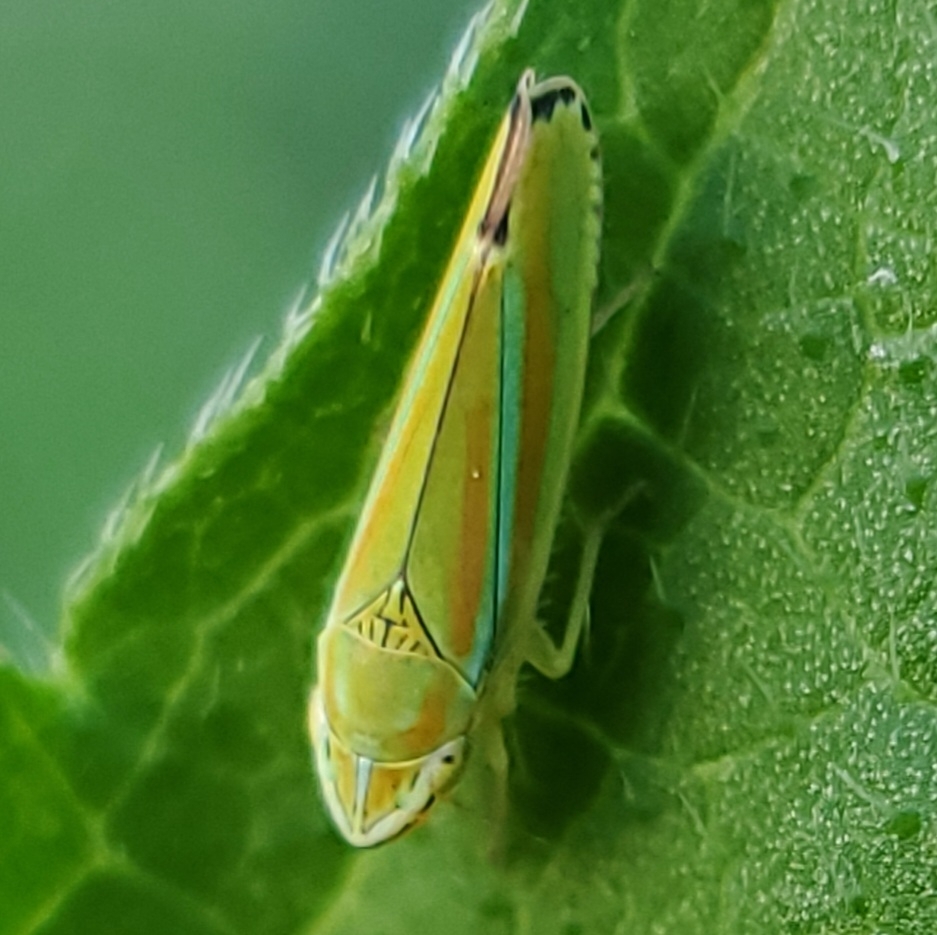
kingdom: Animalia
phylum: Arthropoda
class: Insecta
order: Hemiptera
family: Cicadellidae
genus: Graphocephala
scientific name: Graphocephala versuta
